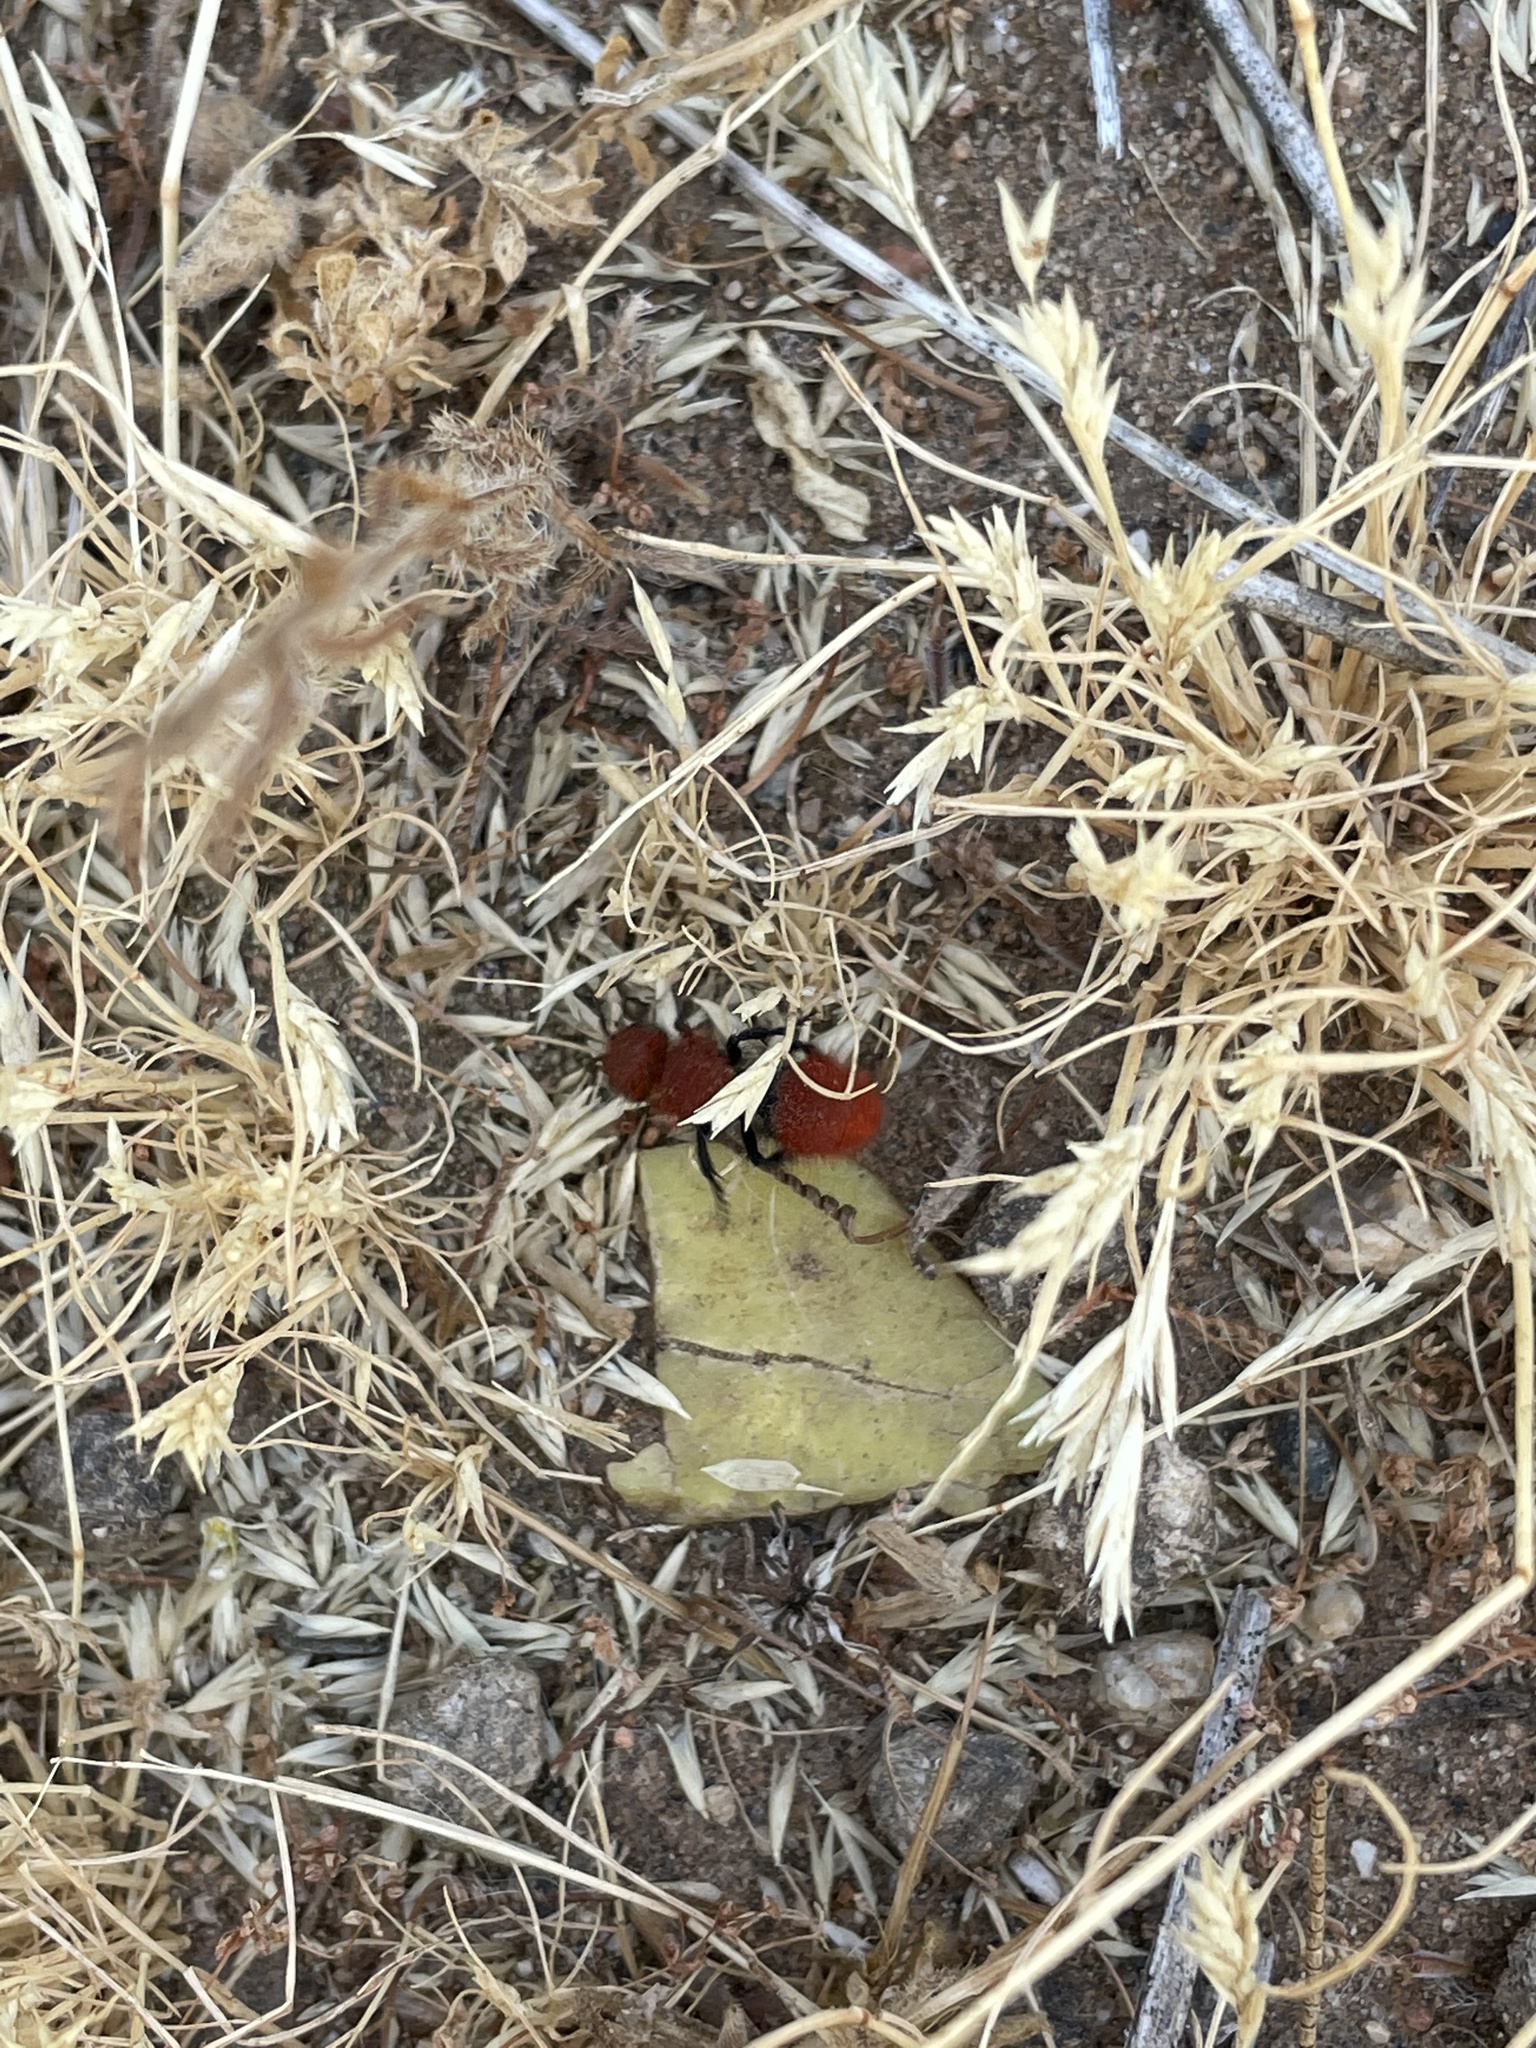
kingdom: Animalia
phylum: Arthropoda
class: Insecta
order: Hymenoptera
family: Mutillidae
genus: Dasymutilla
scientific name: Dasymutilla
